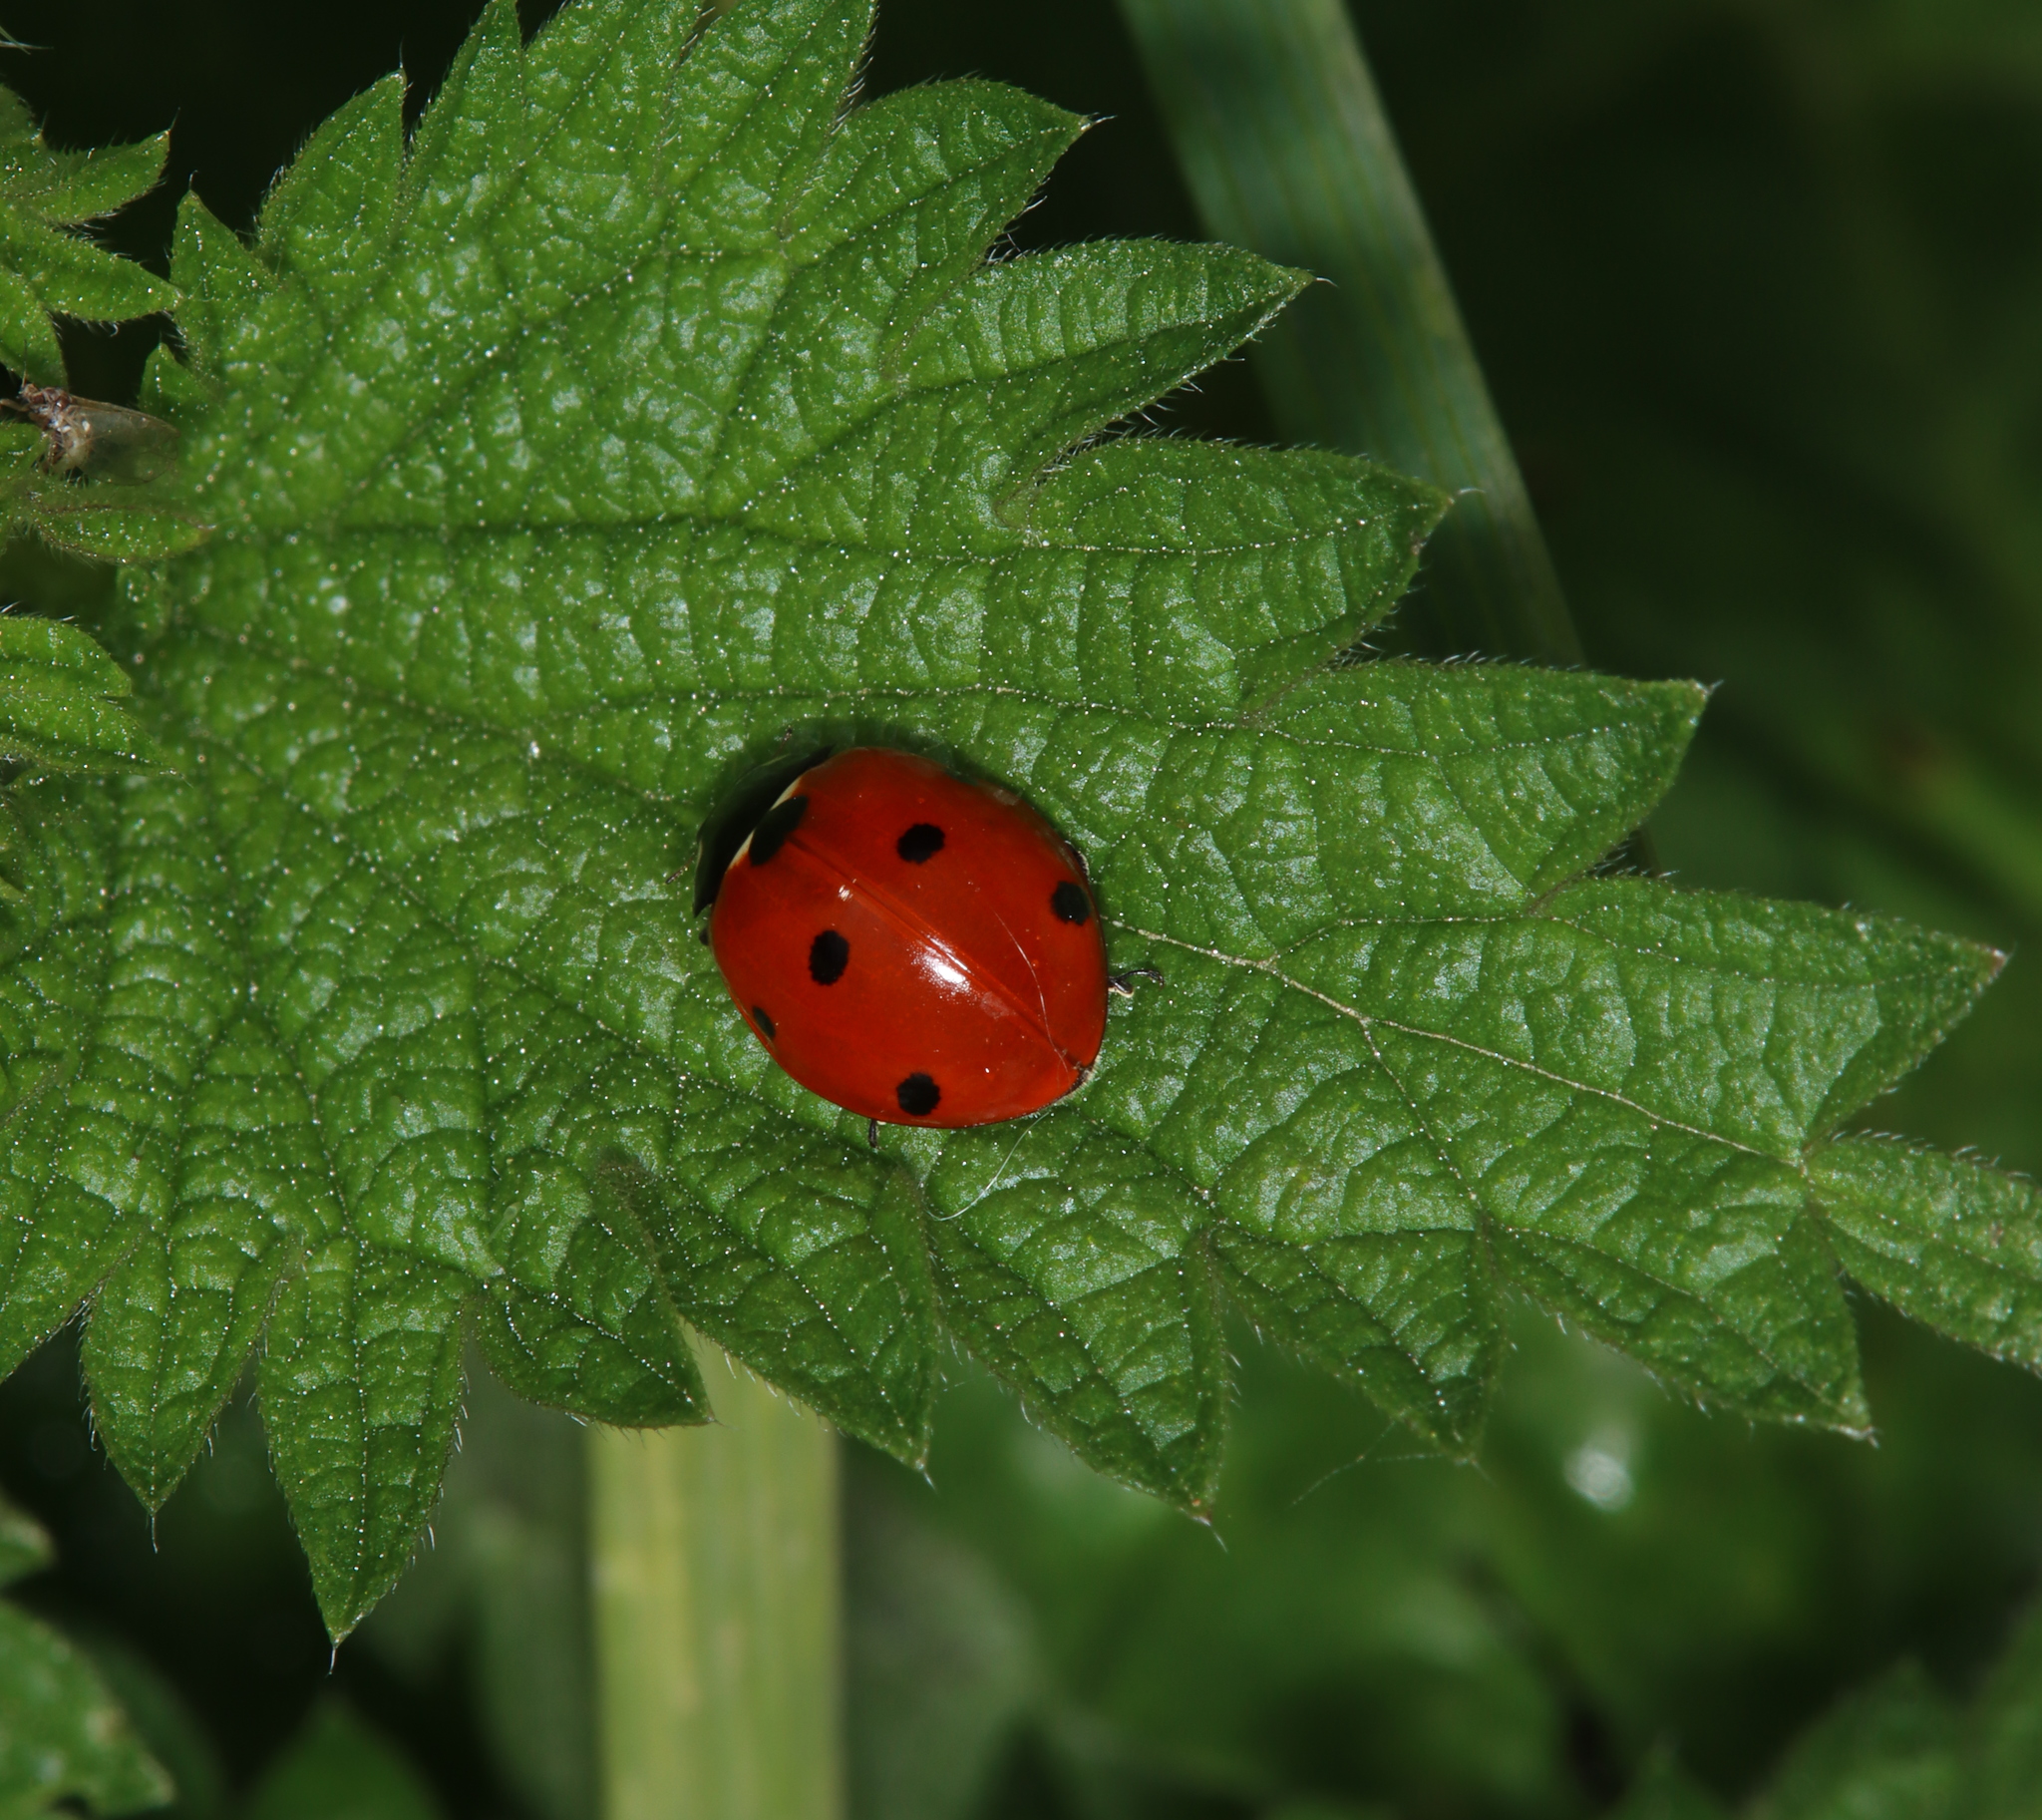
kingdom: Animalia
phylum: Arthropoda
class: Insecta
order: Coleoptera
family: Coccinellidae
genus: Coccinella
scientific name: Coccinella septempunctata
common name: Sevenspotted lady beetle
